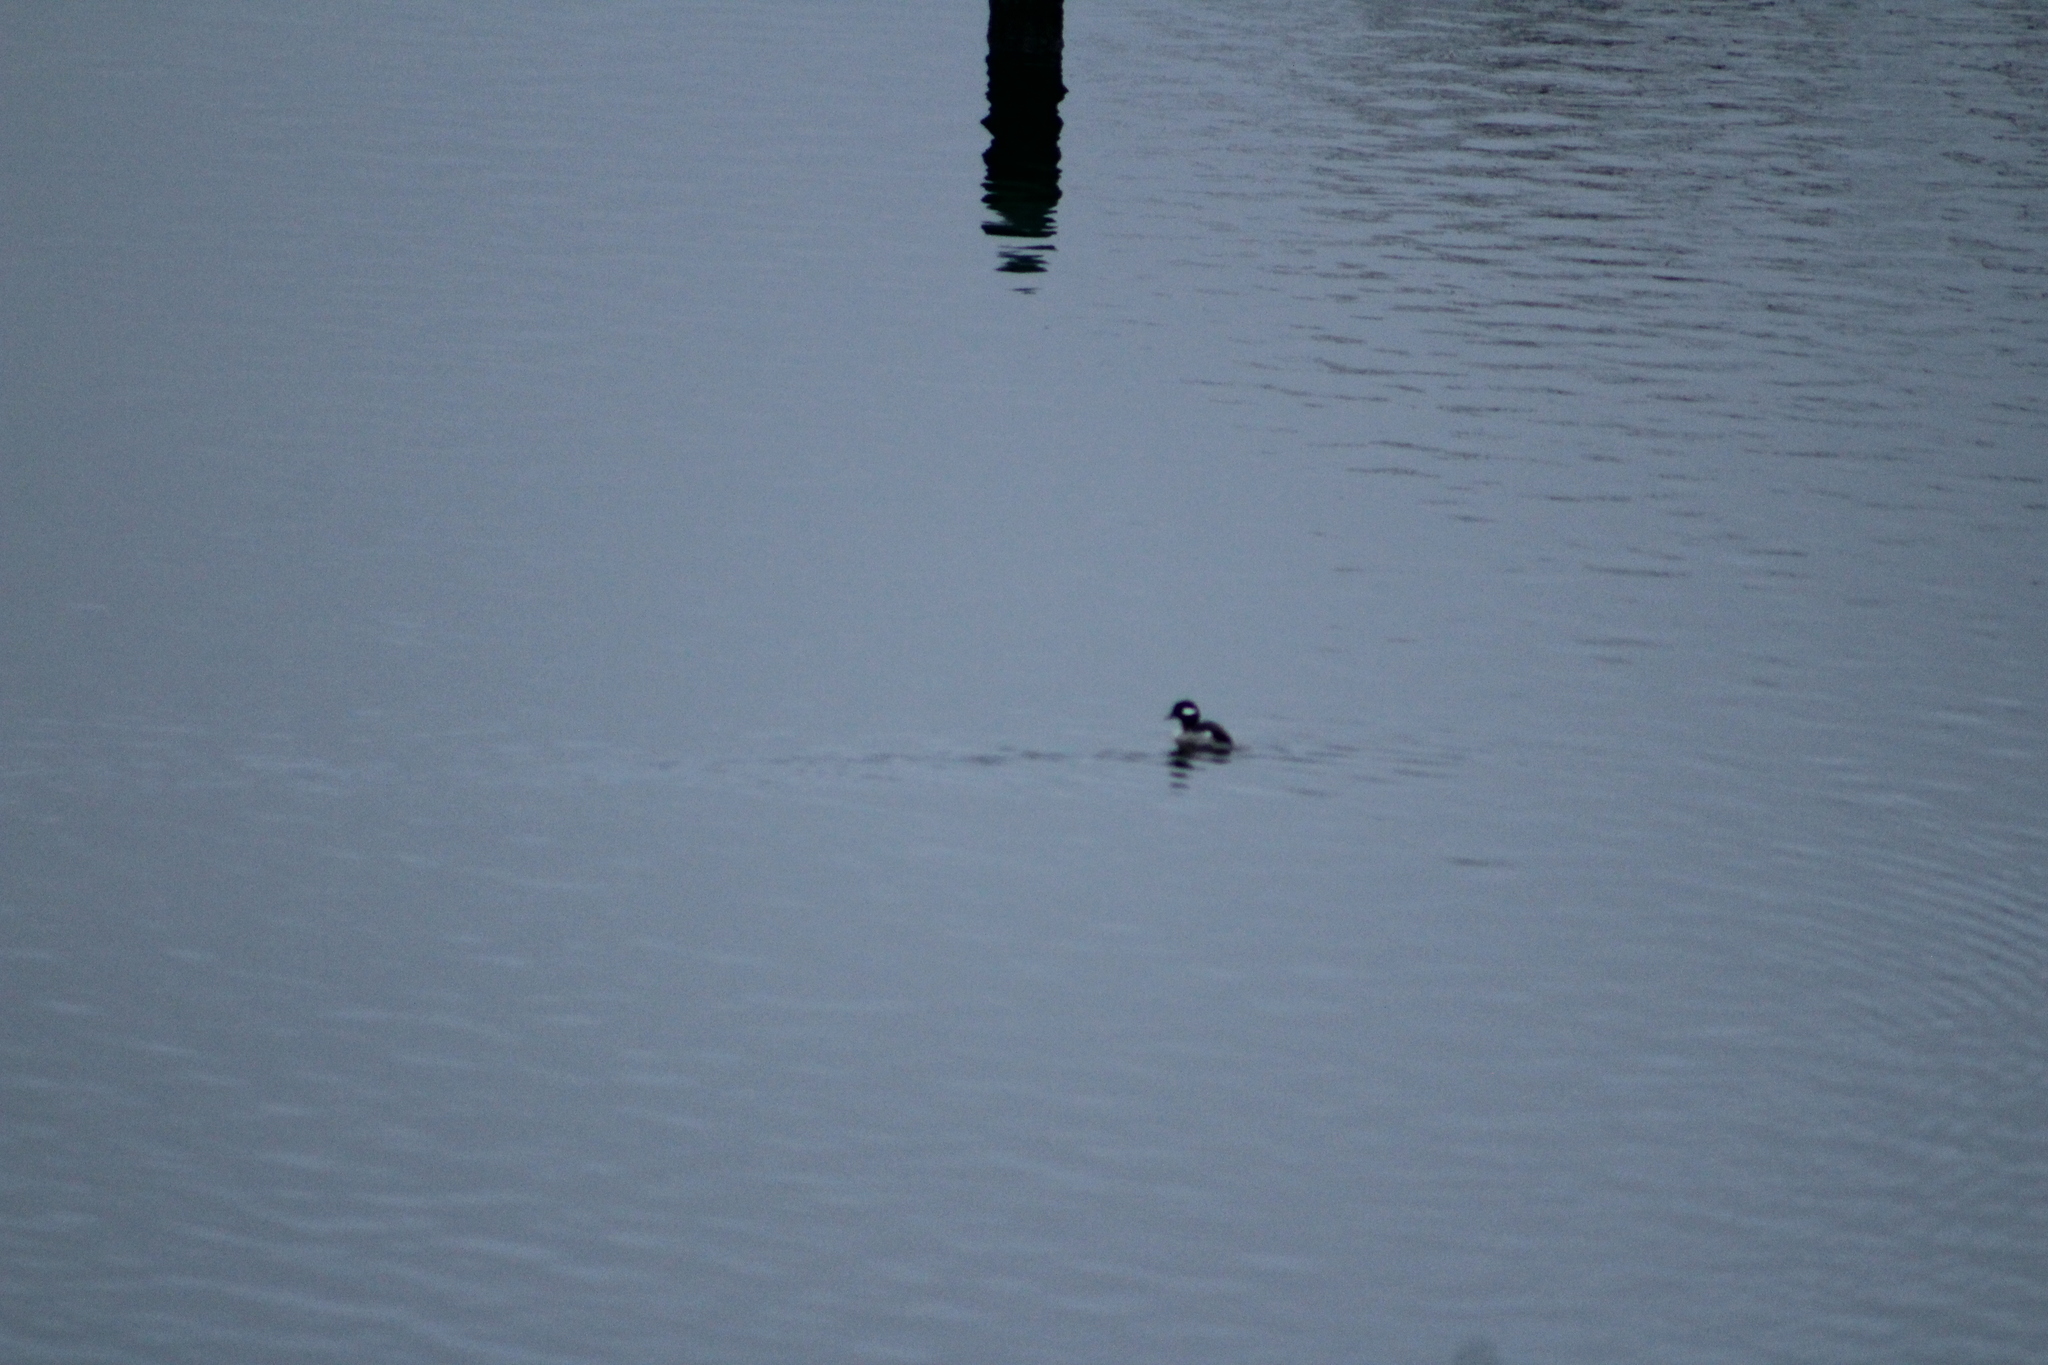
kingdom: Animalia
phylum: Chordata
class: Aves
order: Anseriformes
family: Anatidae
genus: Bucephala
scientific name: Bucephala albeola
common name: Bufflehead
